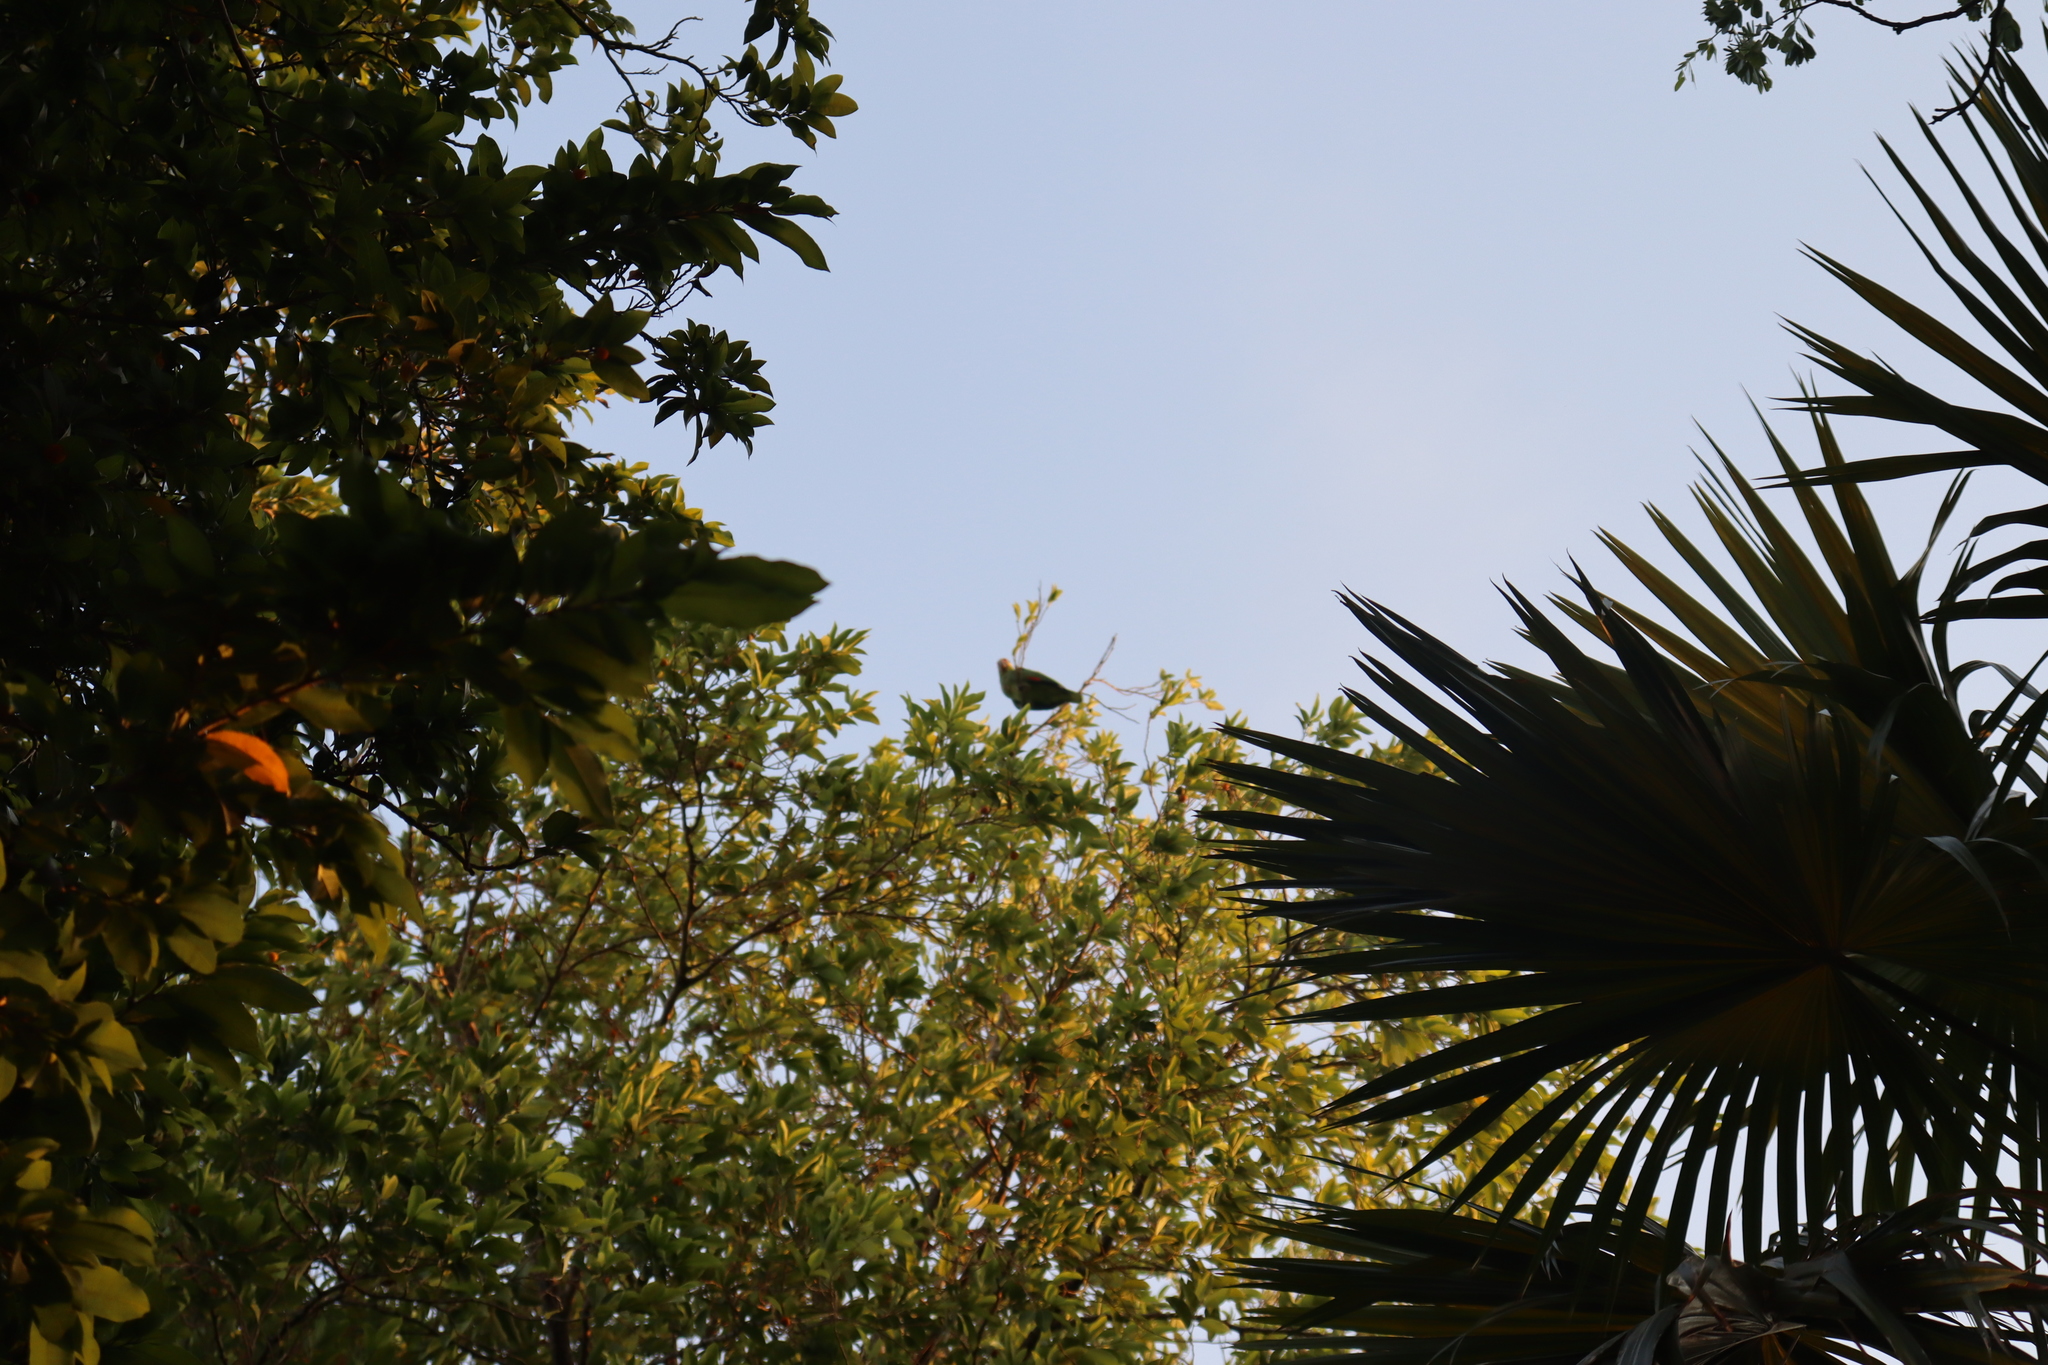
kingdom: Animalia
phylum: Chordata
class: Aves
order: Psittaciformes
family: Psittacidae
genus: Amazona
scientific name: Amazona autumnalis
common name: Red-lored amazon
